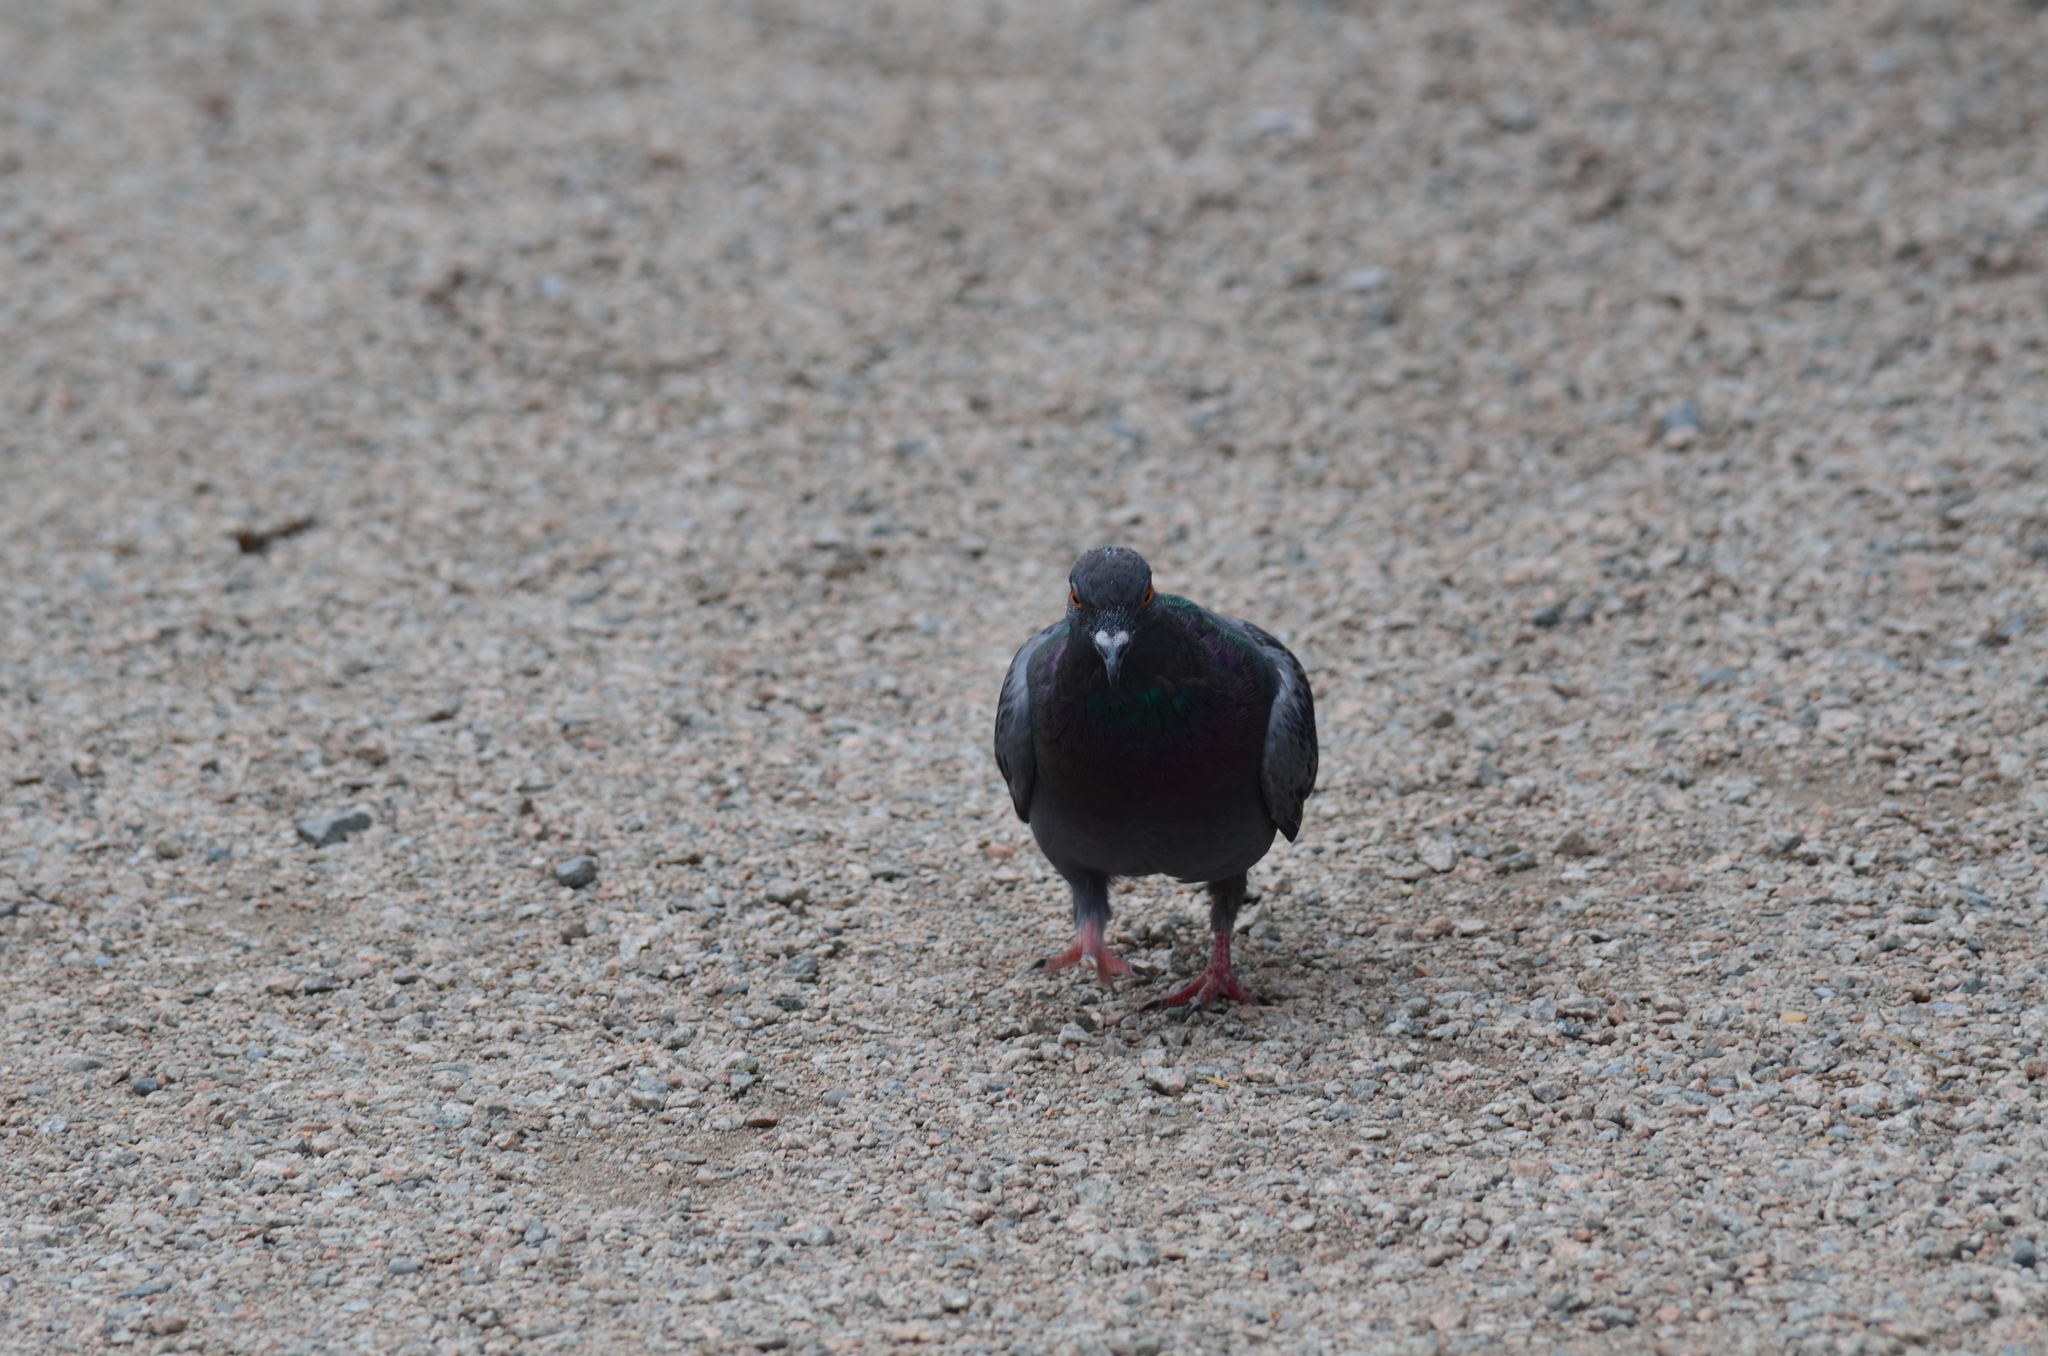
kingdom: Animalia
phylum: Chordata
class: Aves
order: Columbiformes
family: Columbidae
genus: Columba
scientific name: Columba livia
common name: Rock pigeon
